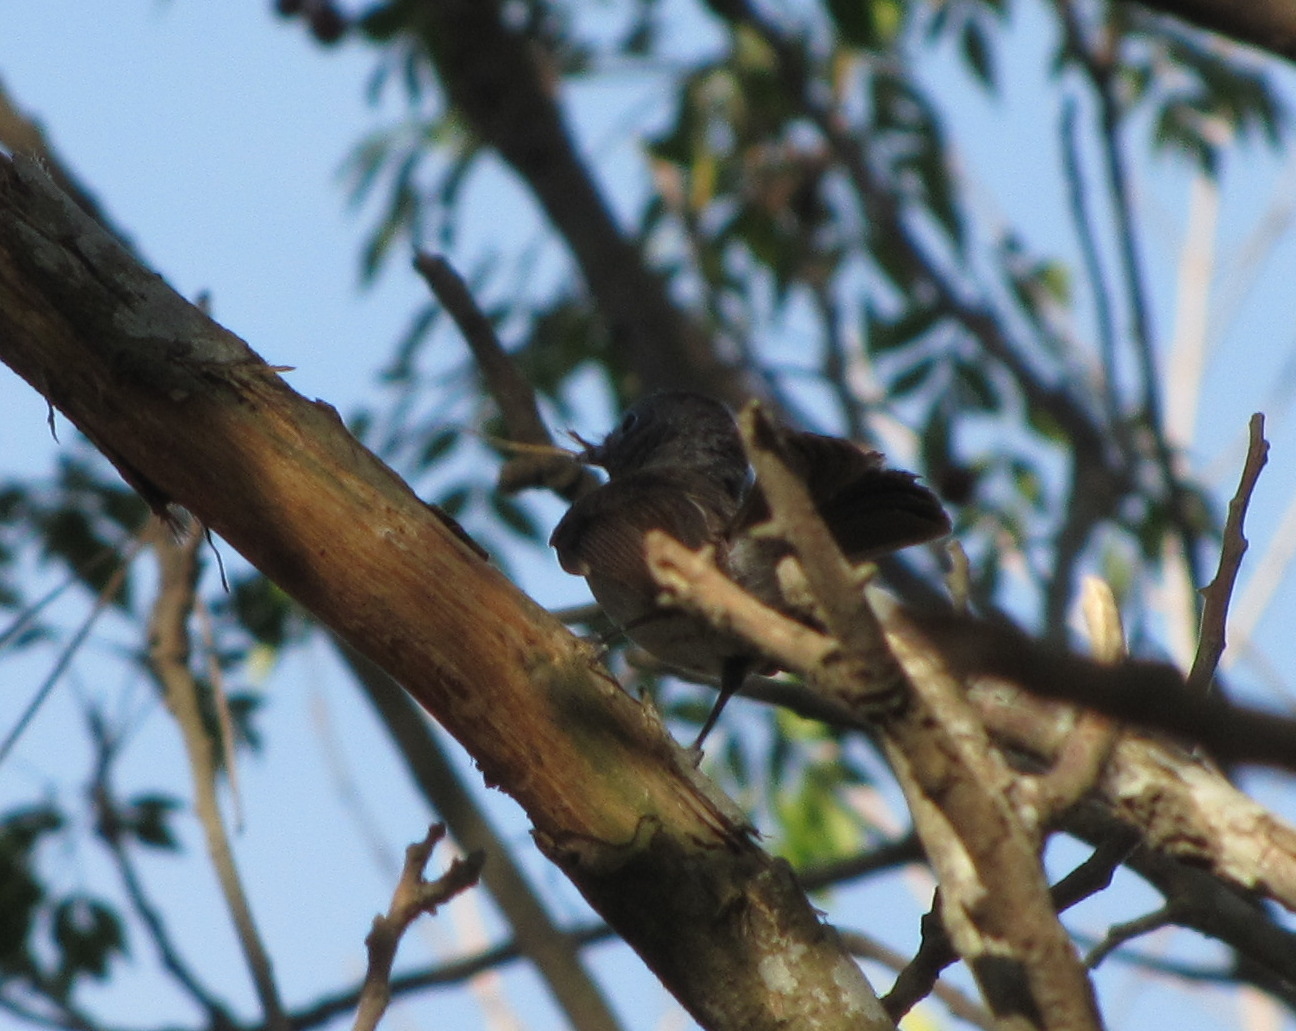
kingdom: Animalia
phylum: Chordata
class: Aves
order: Passeriformes
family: Monarchidae
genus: Hypothymis
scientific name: Hypothymis azurea
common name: Black-naped monarch
